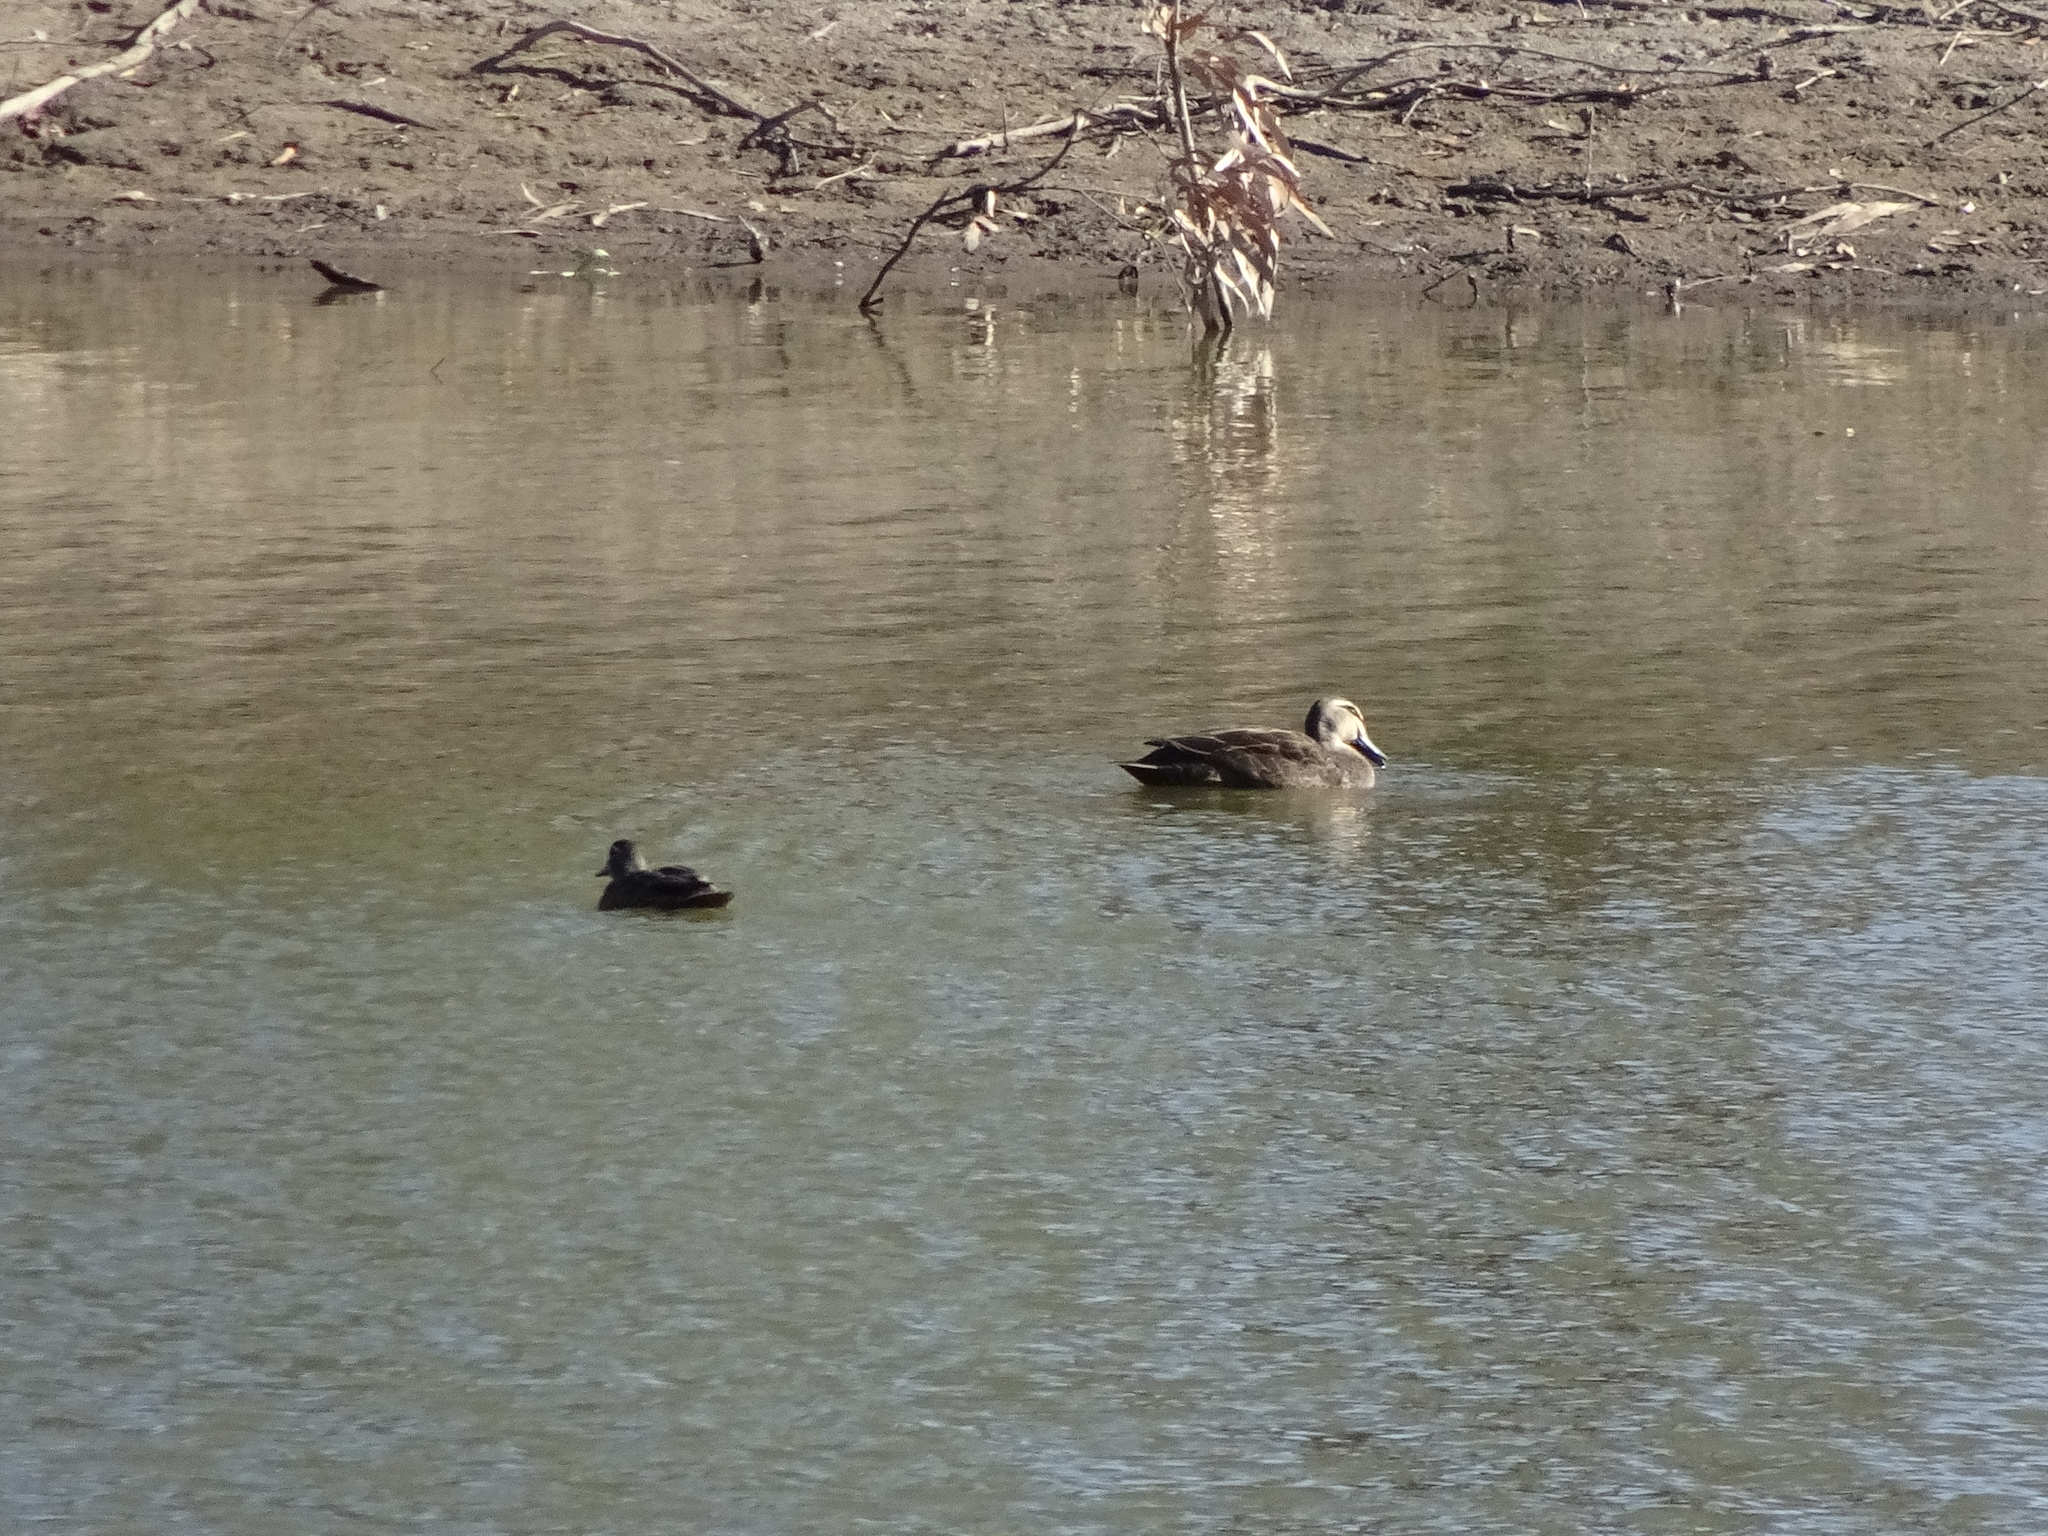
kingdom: Animalia
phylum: Chordata
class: Aves
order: Anseriformes
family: Anatidae
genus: Anas
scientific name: Anas superciliosa
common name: Pacific black duck
